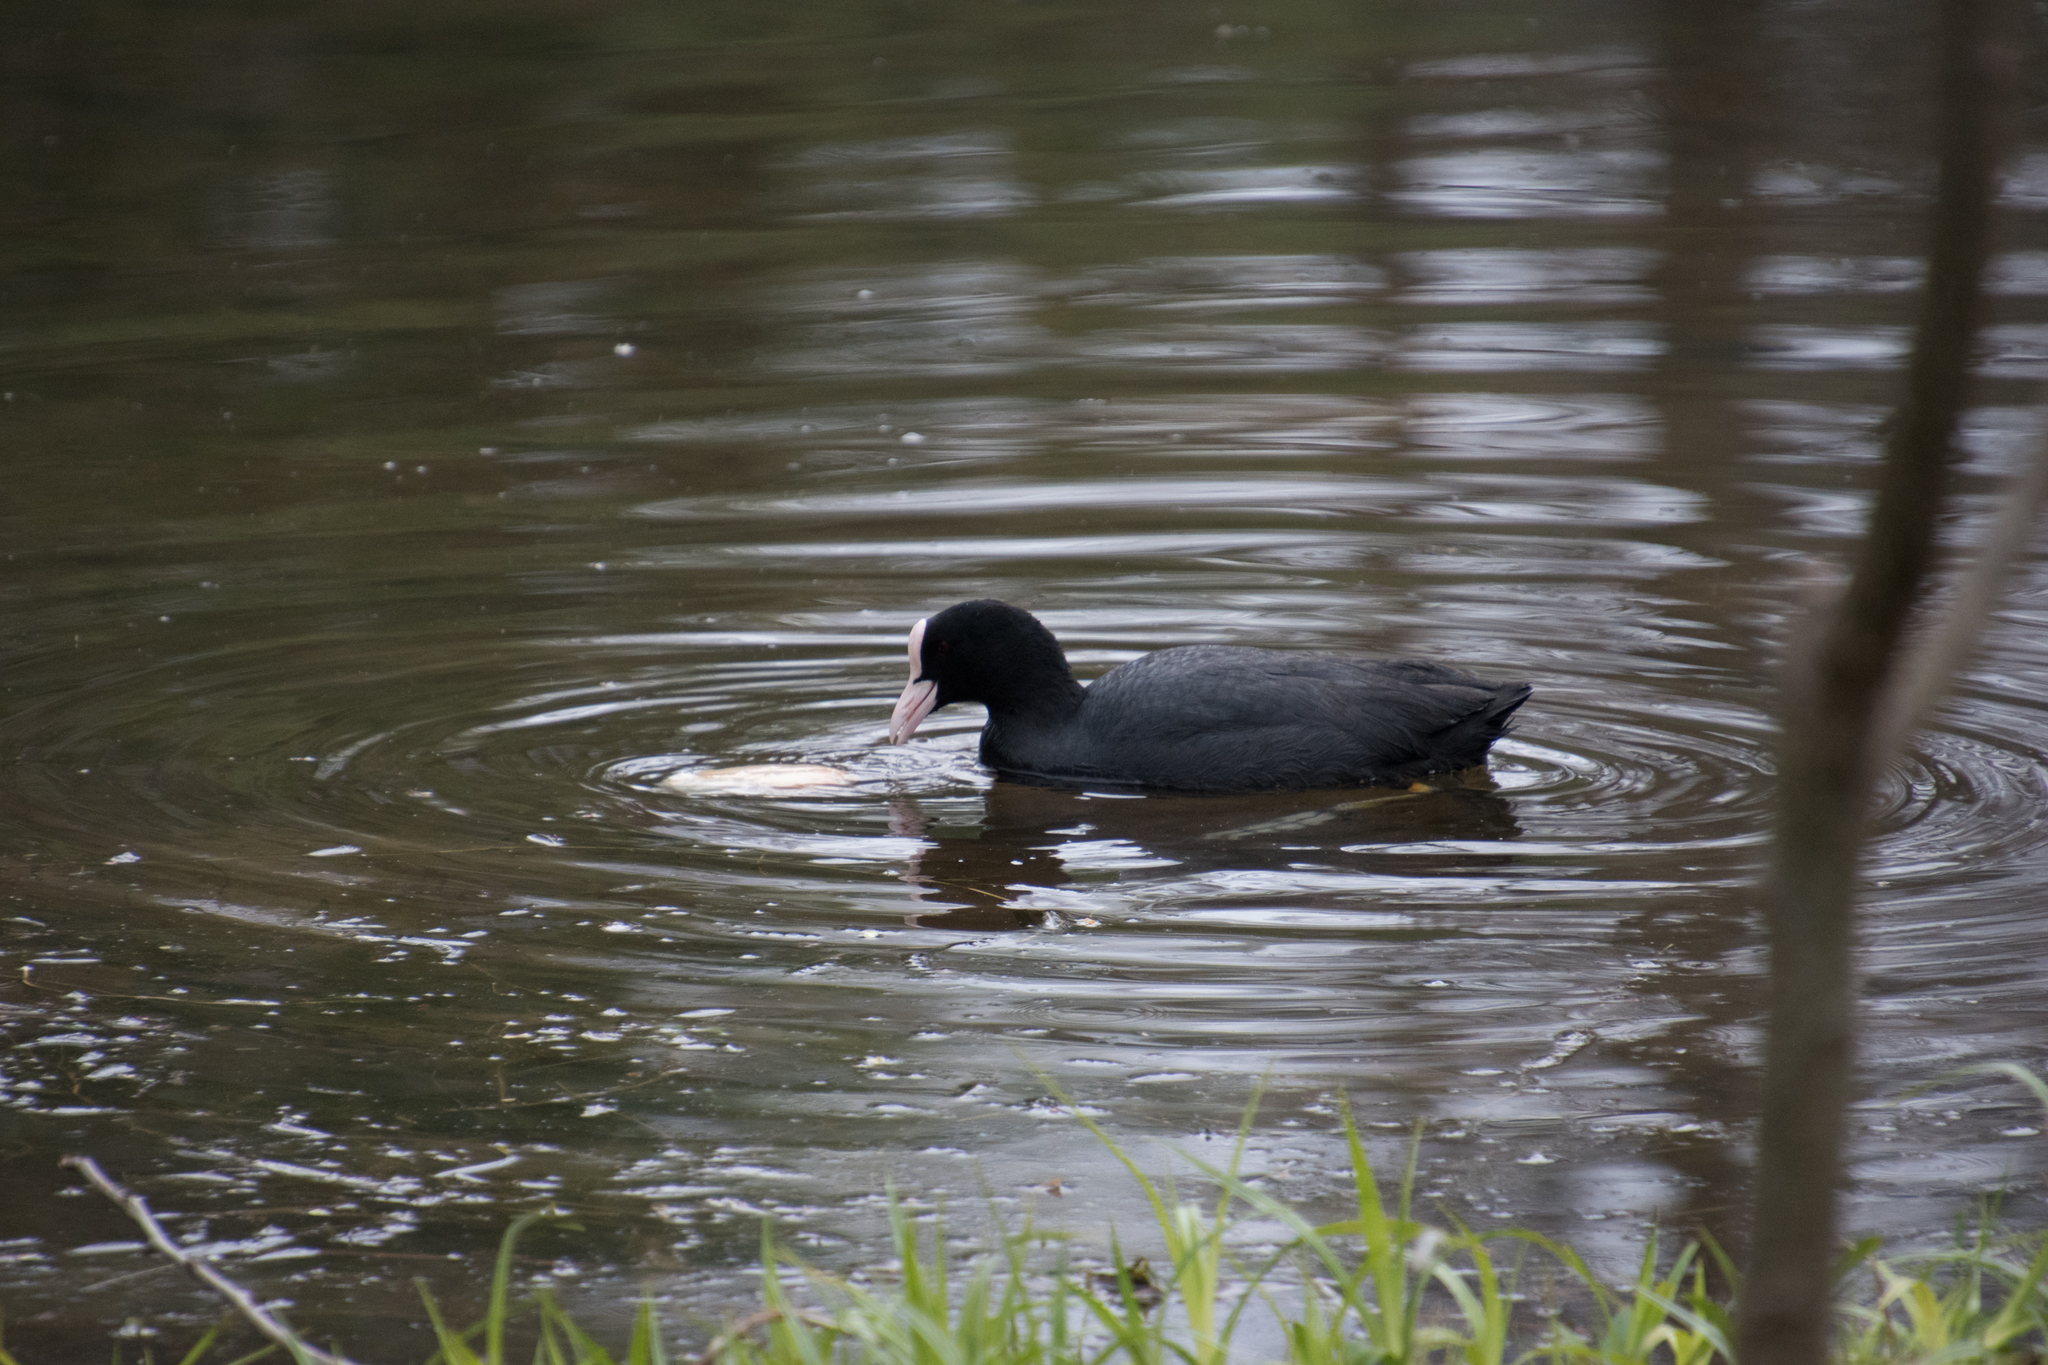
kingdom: Animalia
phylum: Chordata
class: Aves
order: Gruiformes
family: Rallidae
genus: Fulica
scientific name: Fulica atra
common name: Eurasian coot
